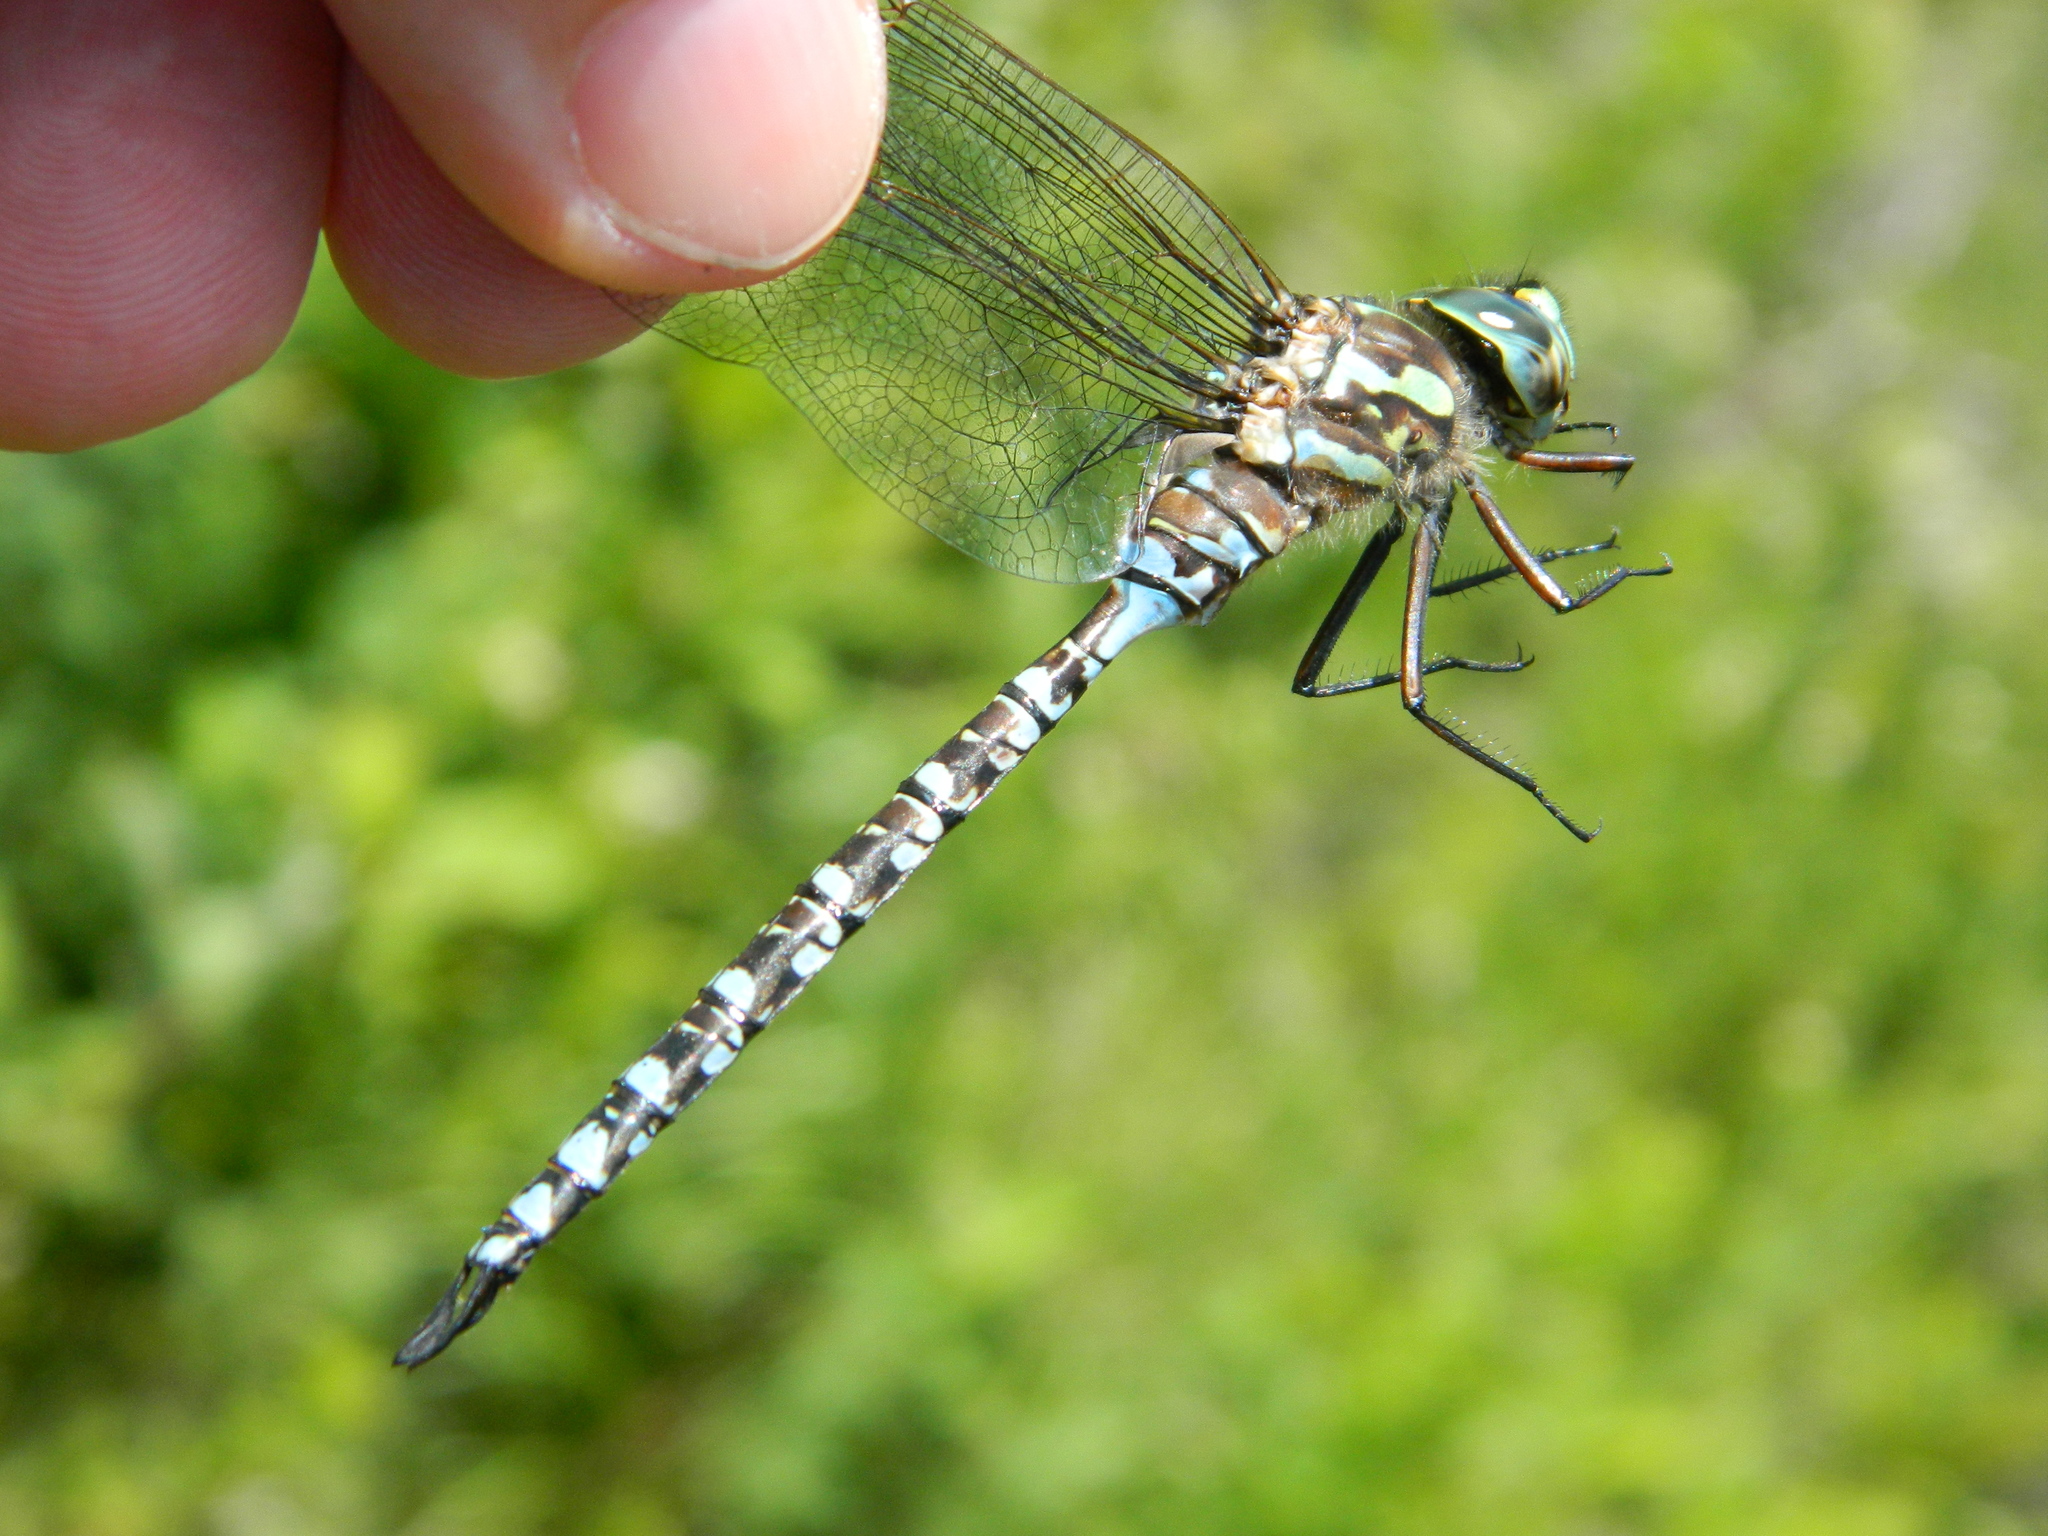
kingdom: Animalia
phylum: Arthropoda
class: Insecta
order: Odonata
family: Aeshnidae
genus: Aeshna
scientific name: Aeshna canadensis
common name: Canada darner
